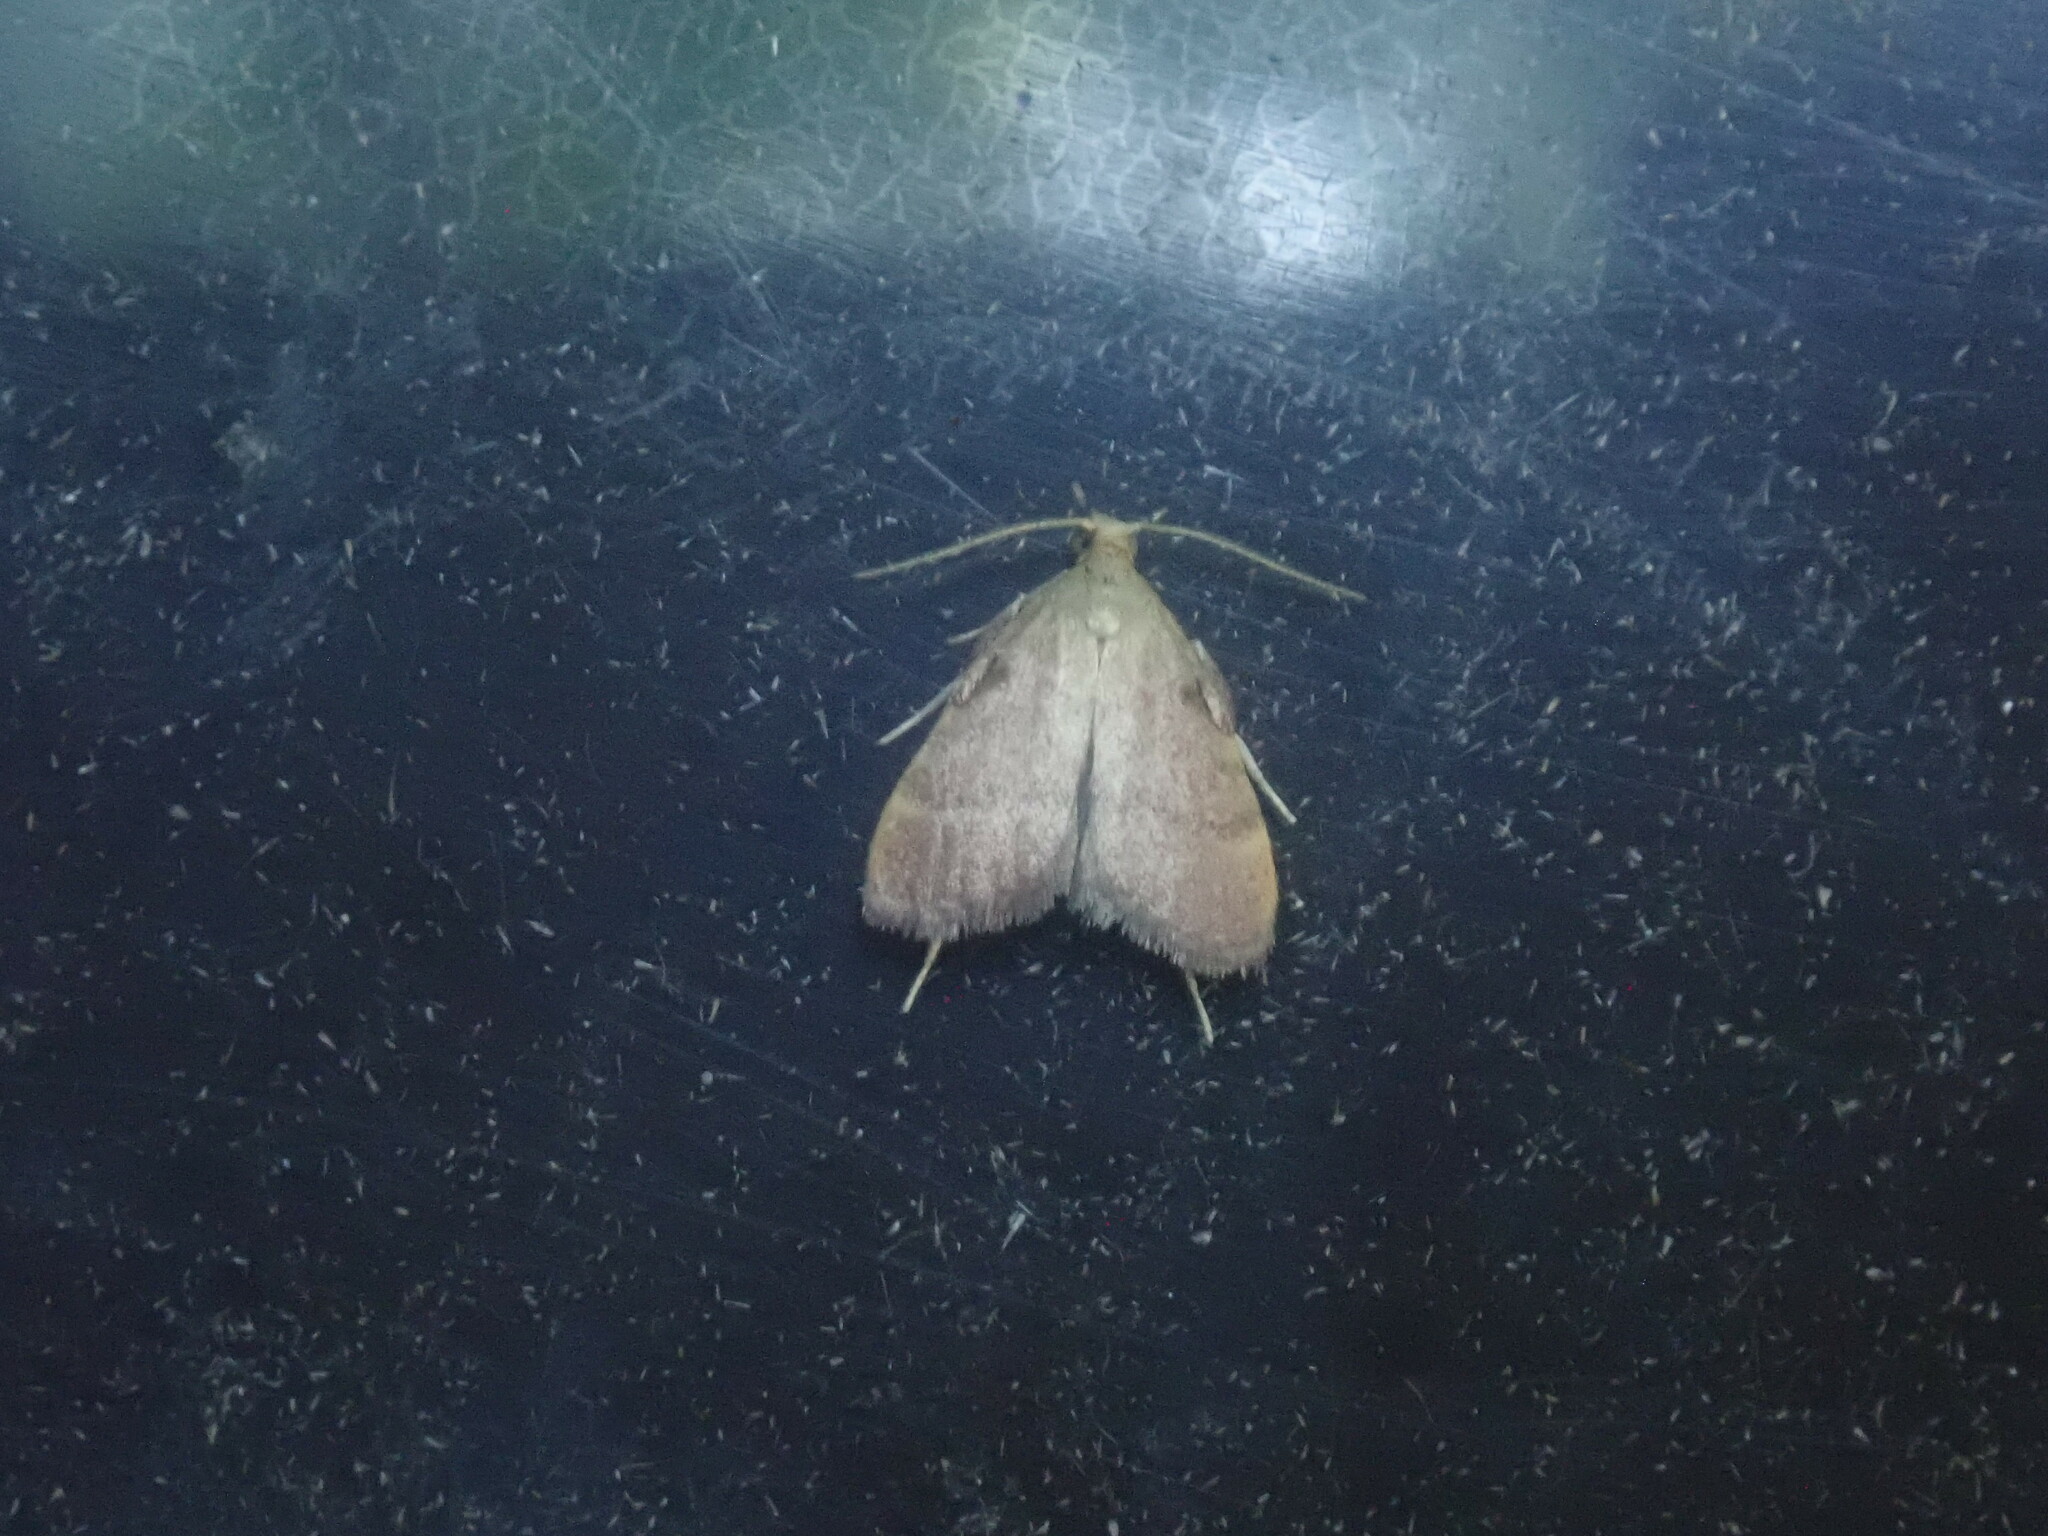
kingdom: Animalia
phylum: Arthropoda
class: Insecta
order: Lepidoptera
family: Pyralidae
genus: Condylolomia
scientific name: Condylolomia participialis
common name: Drab condylolomia moth
